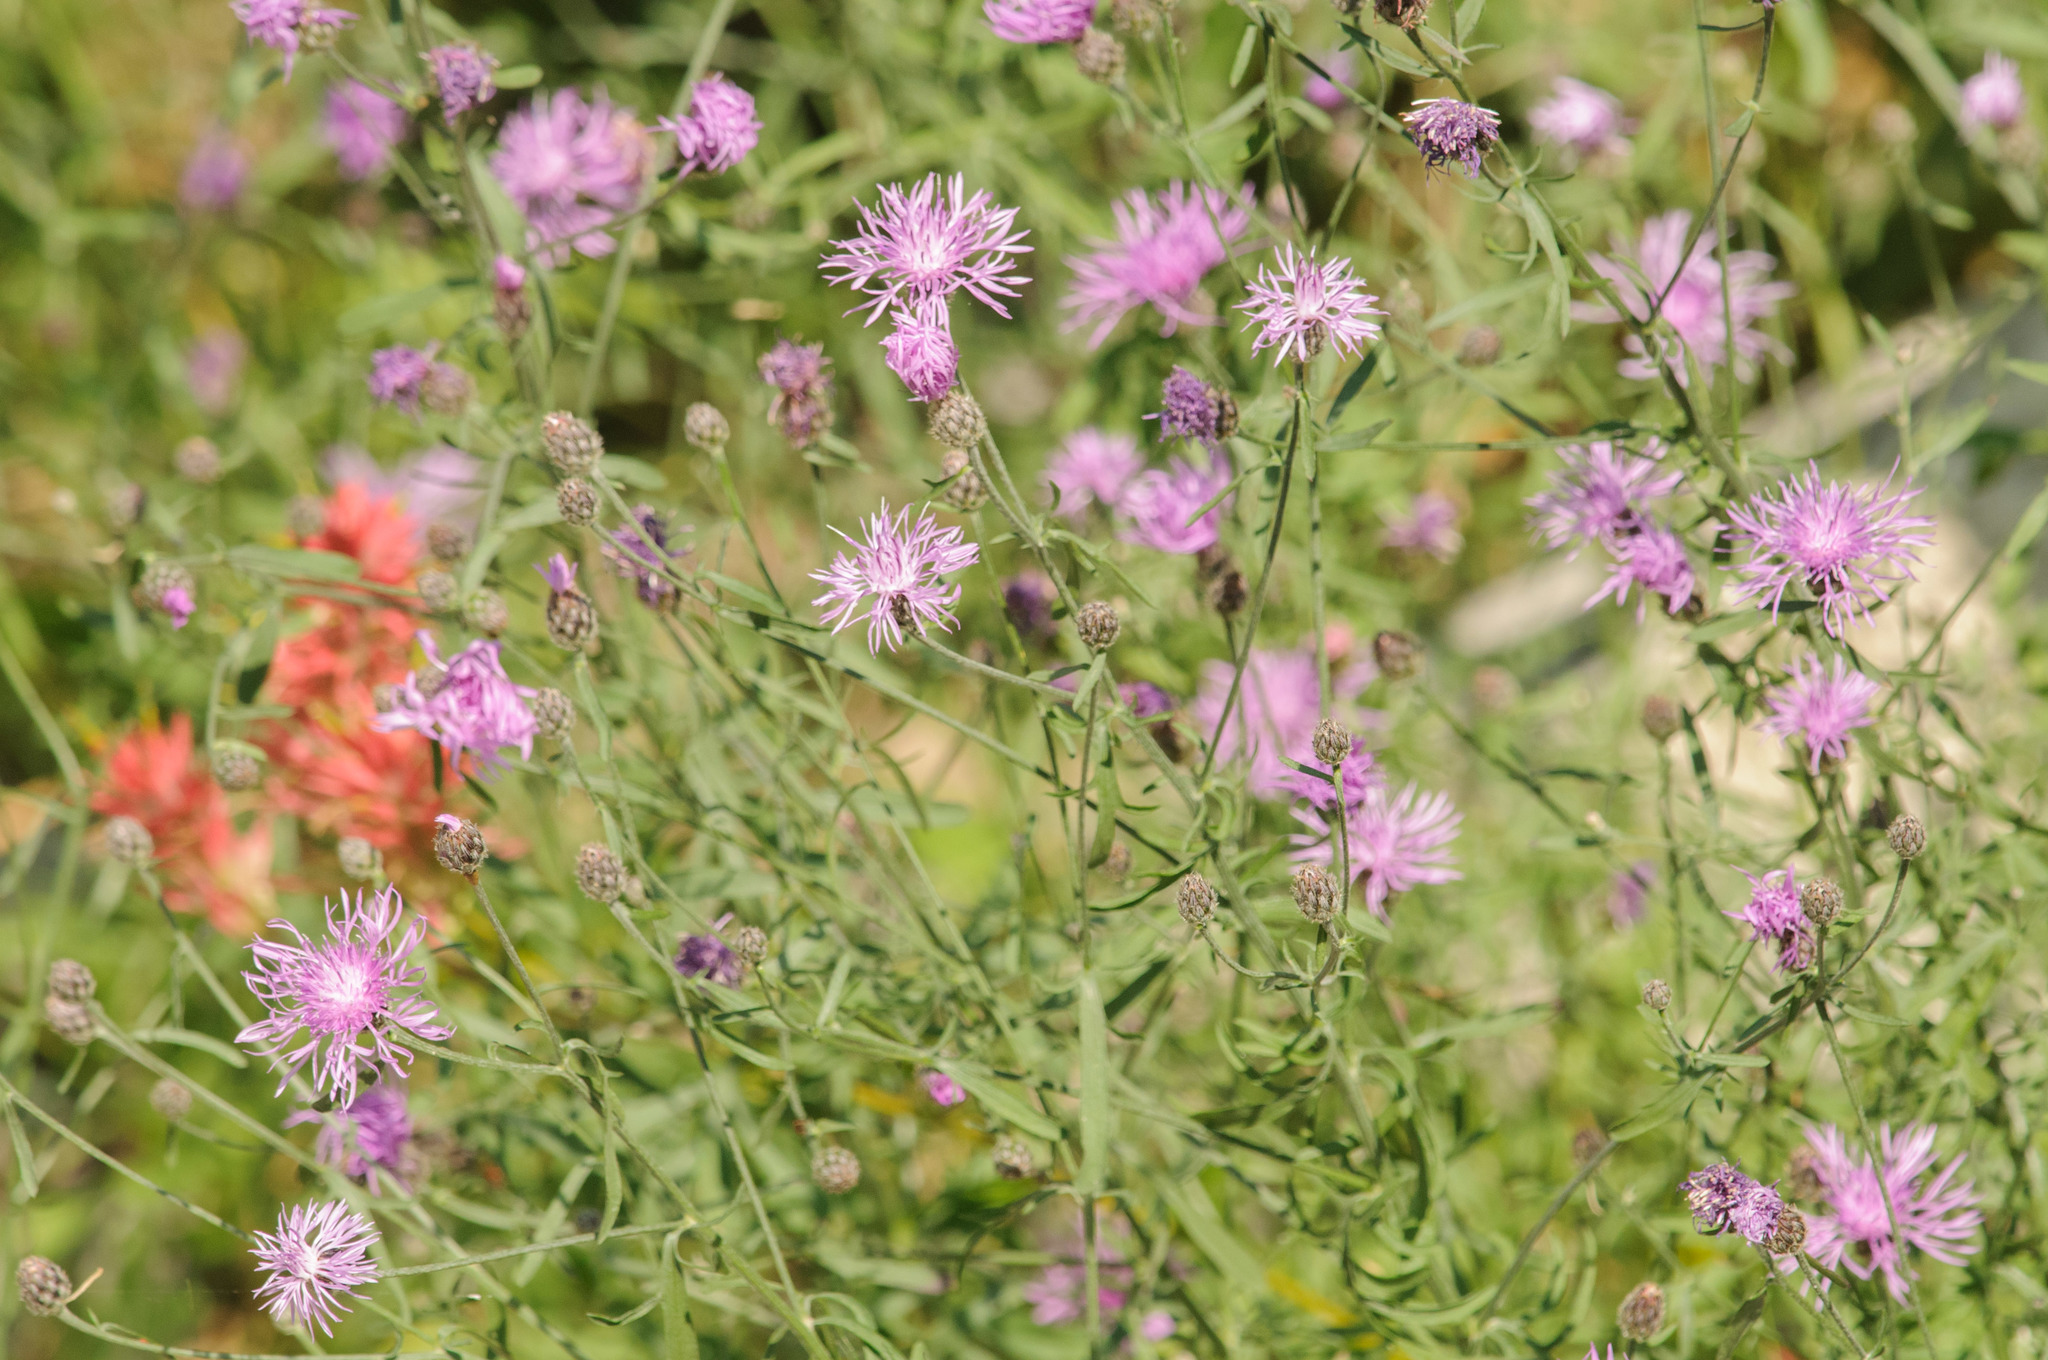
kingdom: Plantae
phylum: Tracheophyta
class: Magnoliopsida
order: Asterales
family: Asteraceae
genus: Centaurea
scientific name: Centaurea stoebe
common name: Spotted knapweed
